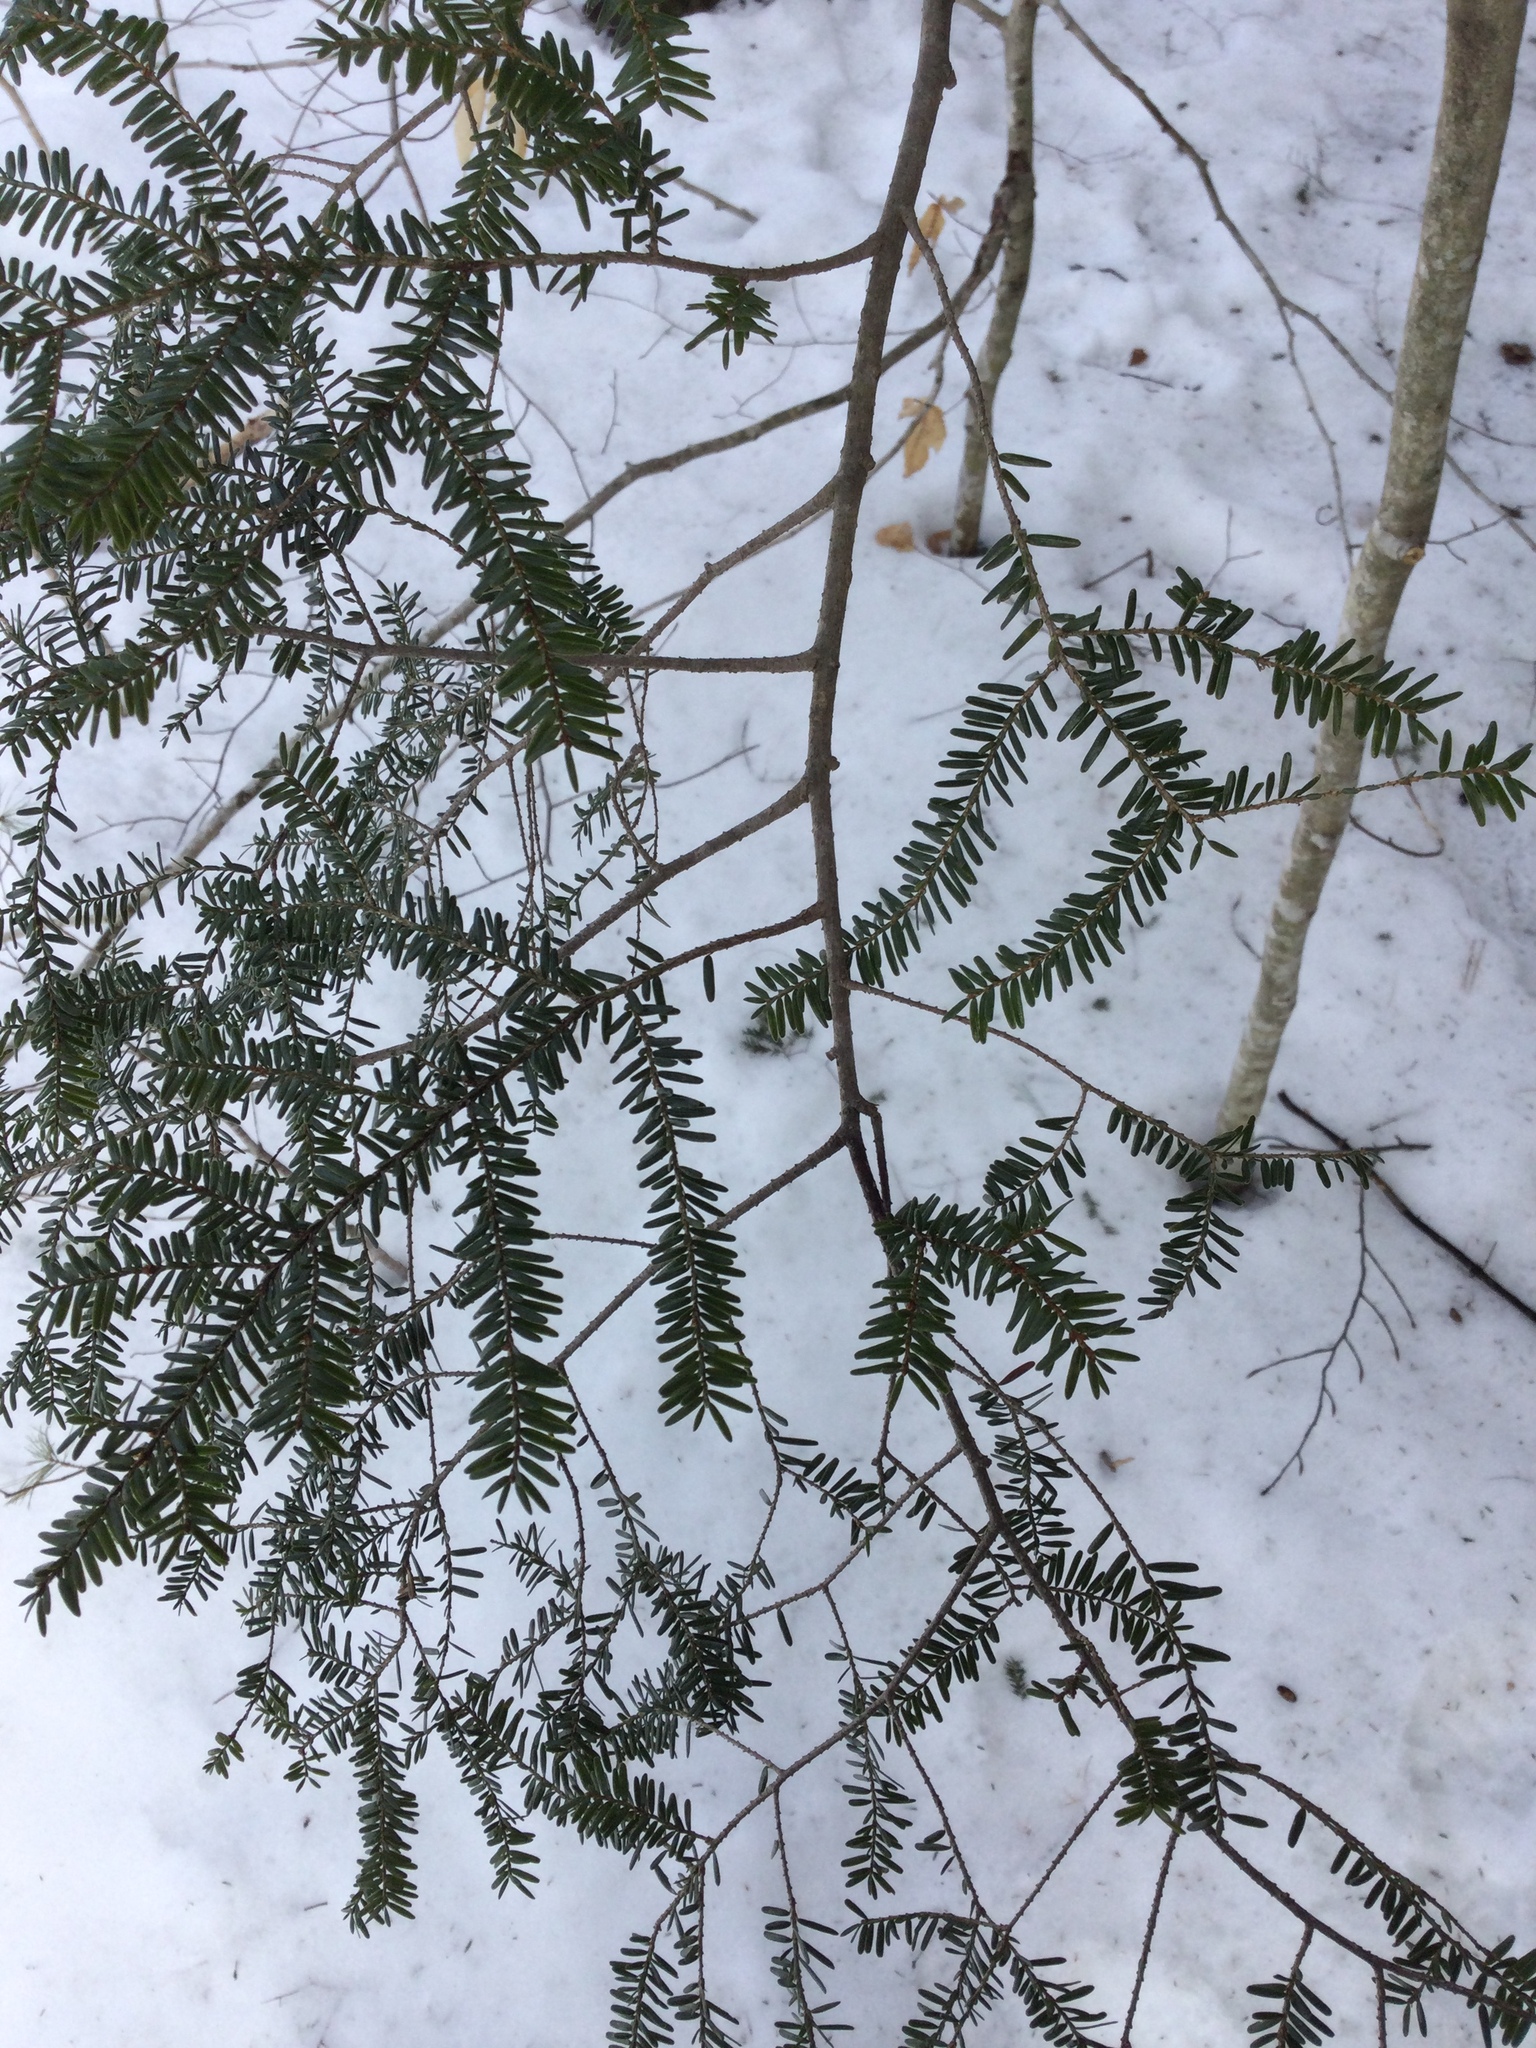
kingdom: Plantae
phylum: Tracheophyta
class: Pinopsida
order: Pinales
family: Pinaceae
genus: Tsuga
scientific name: Tsuga canadensis
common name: Eastern hemlock
